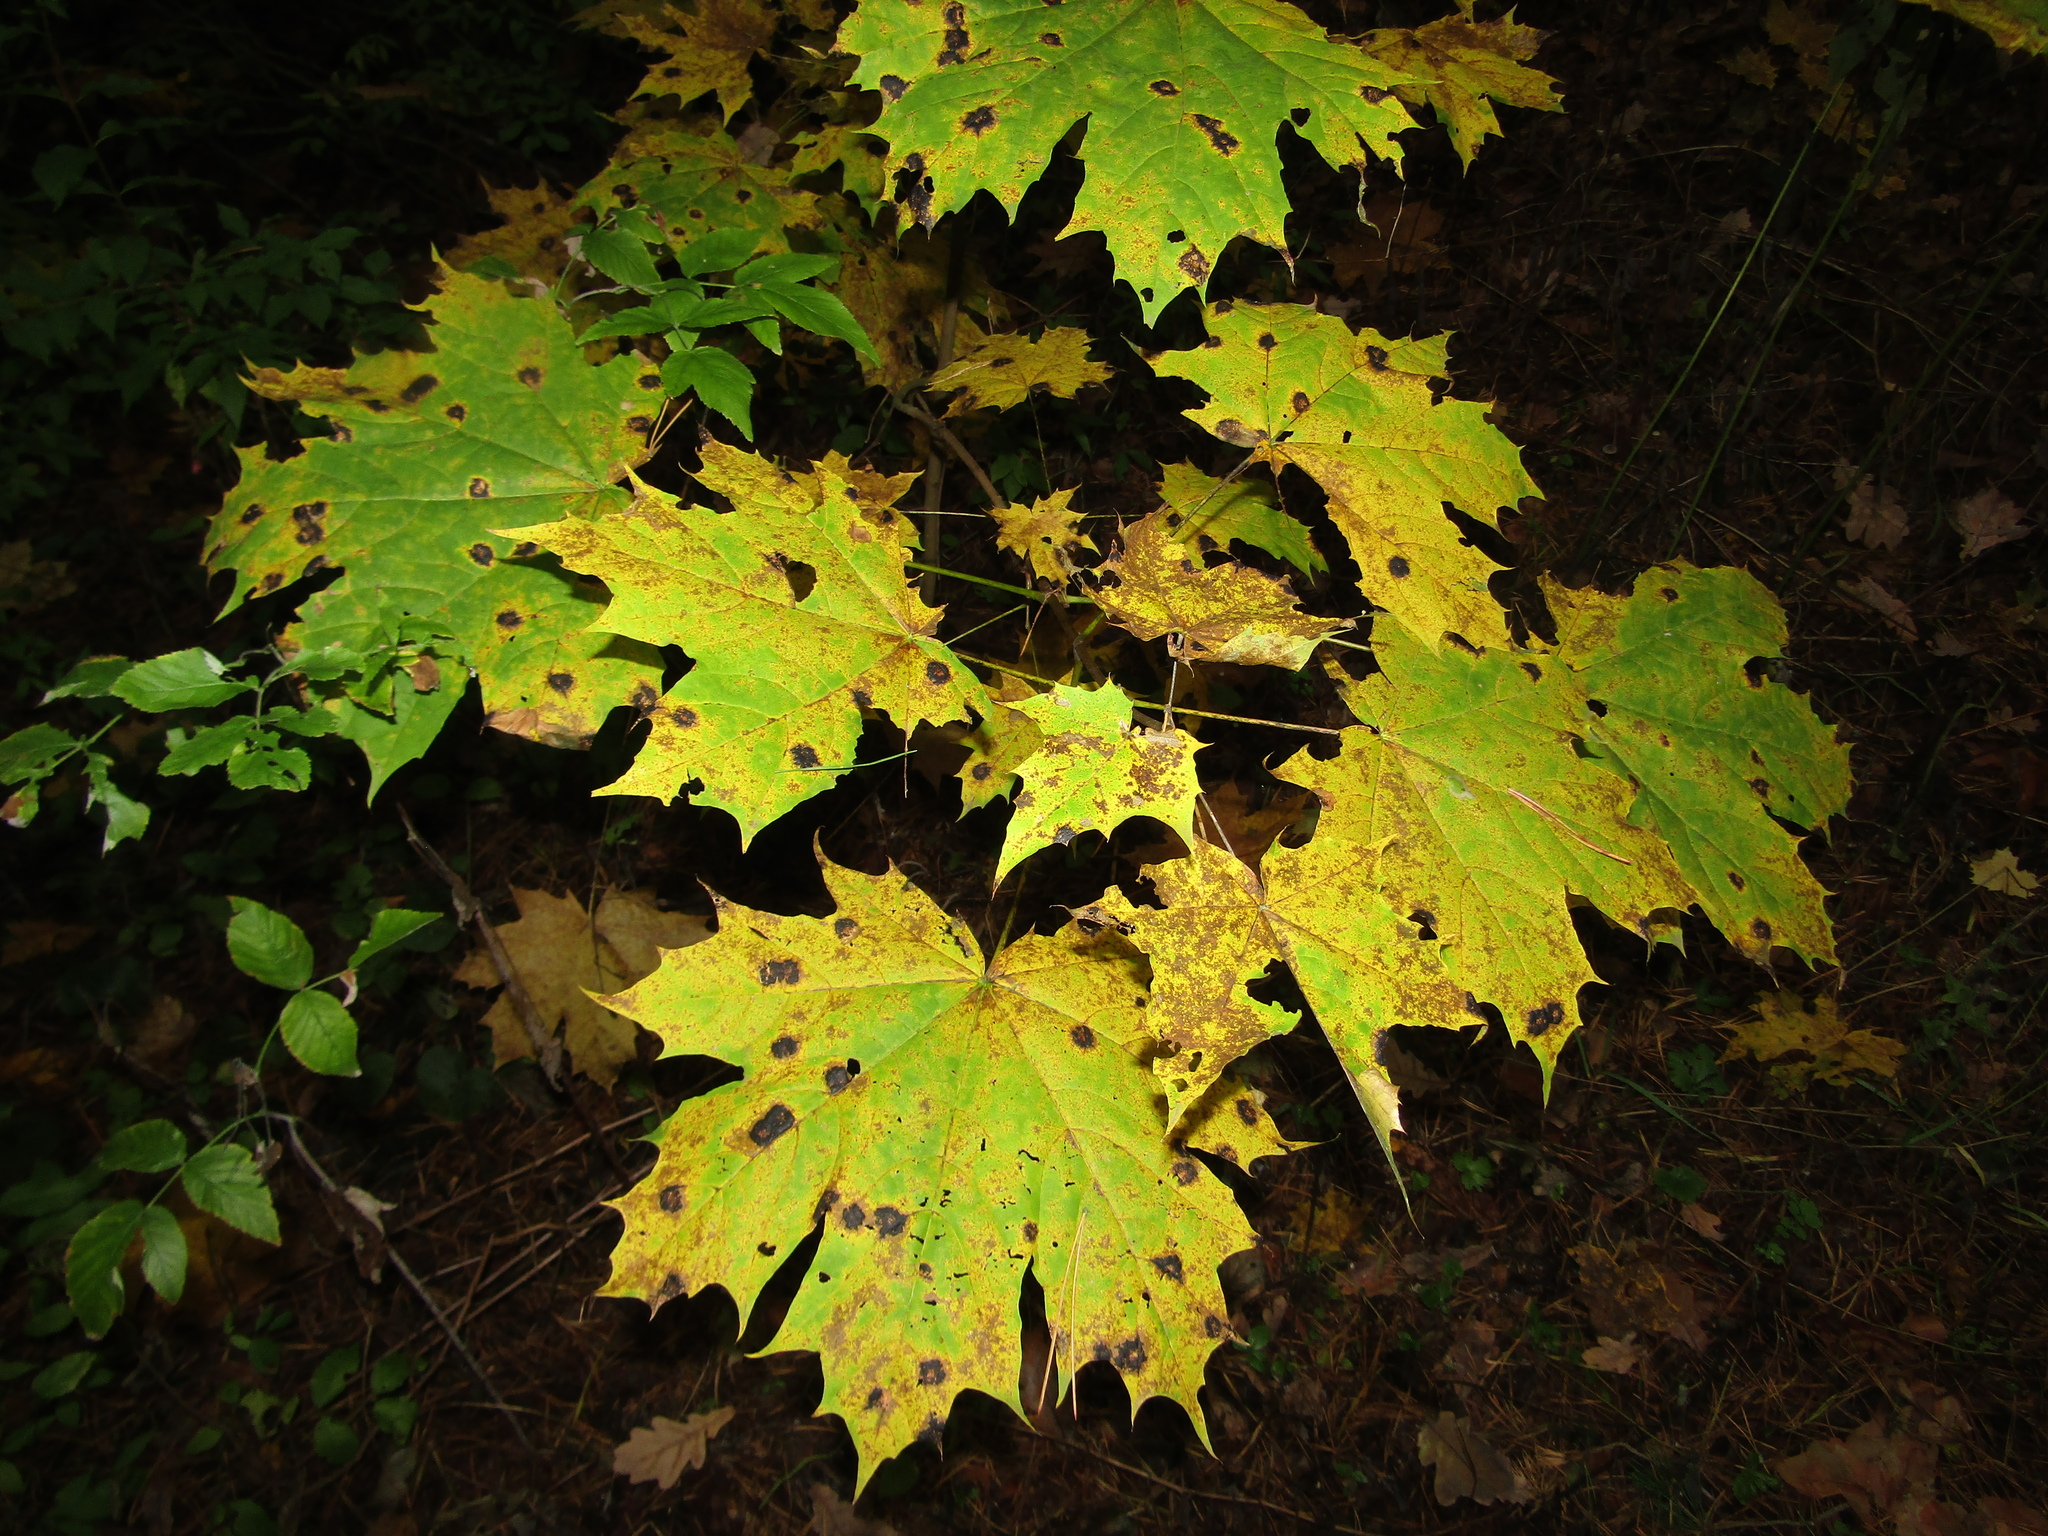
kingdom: Plantae
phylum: Tracheophyta
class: Magnoliopsida
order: Sapindales
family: Sapindaceae
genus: Acer
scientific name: Acer platanoides
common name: Norway maple
